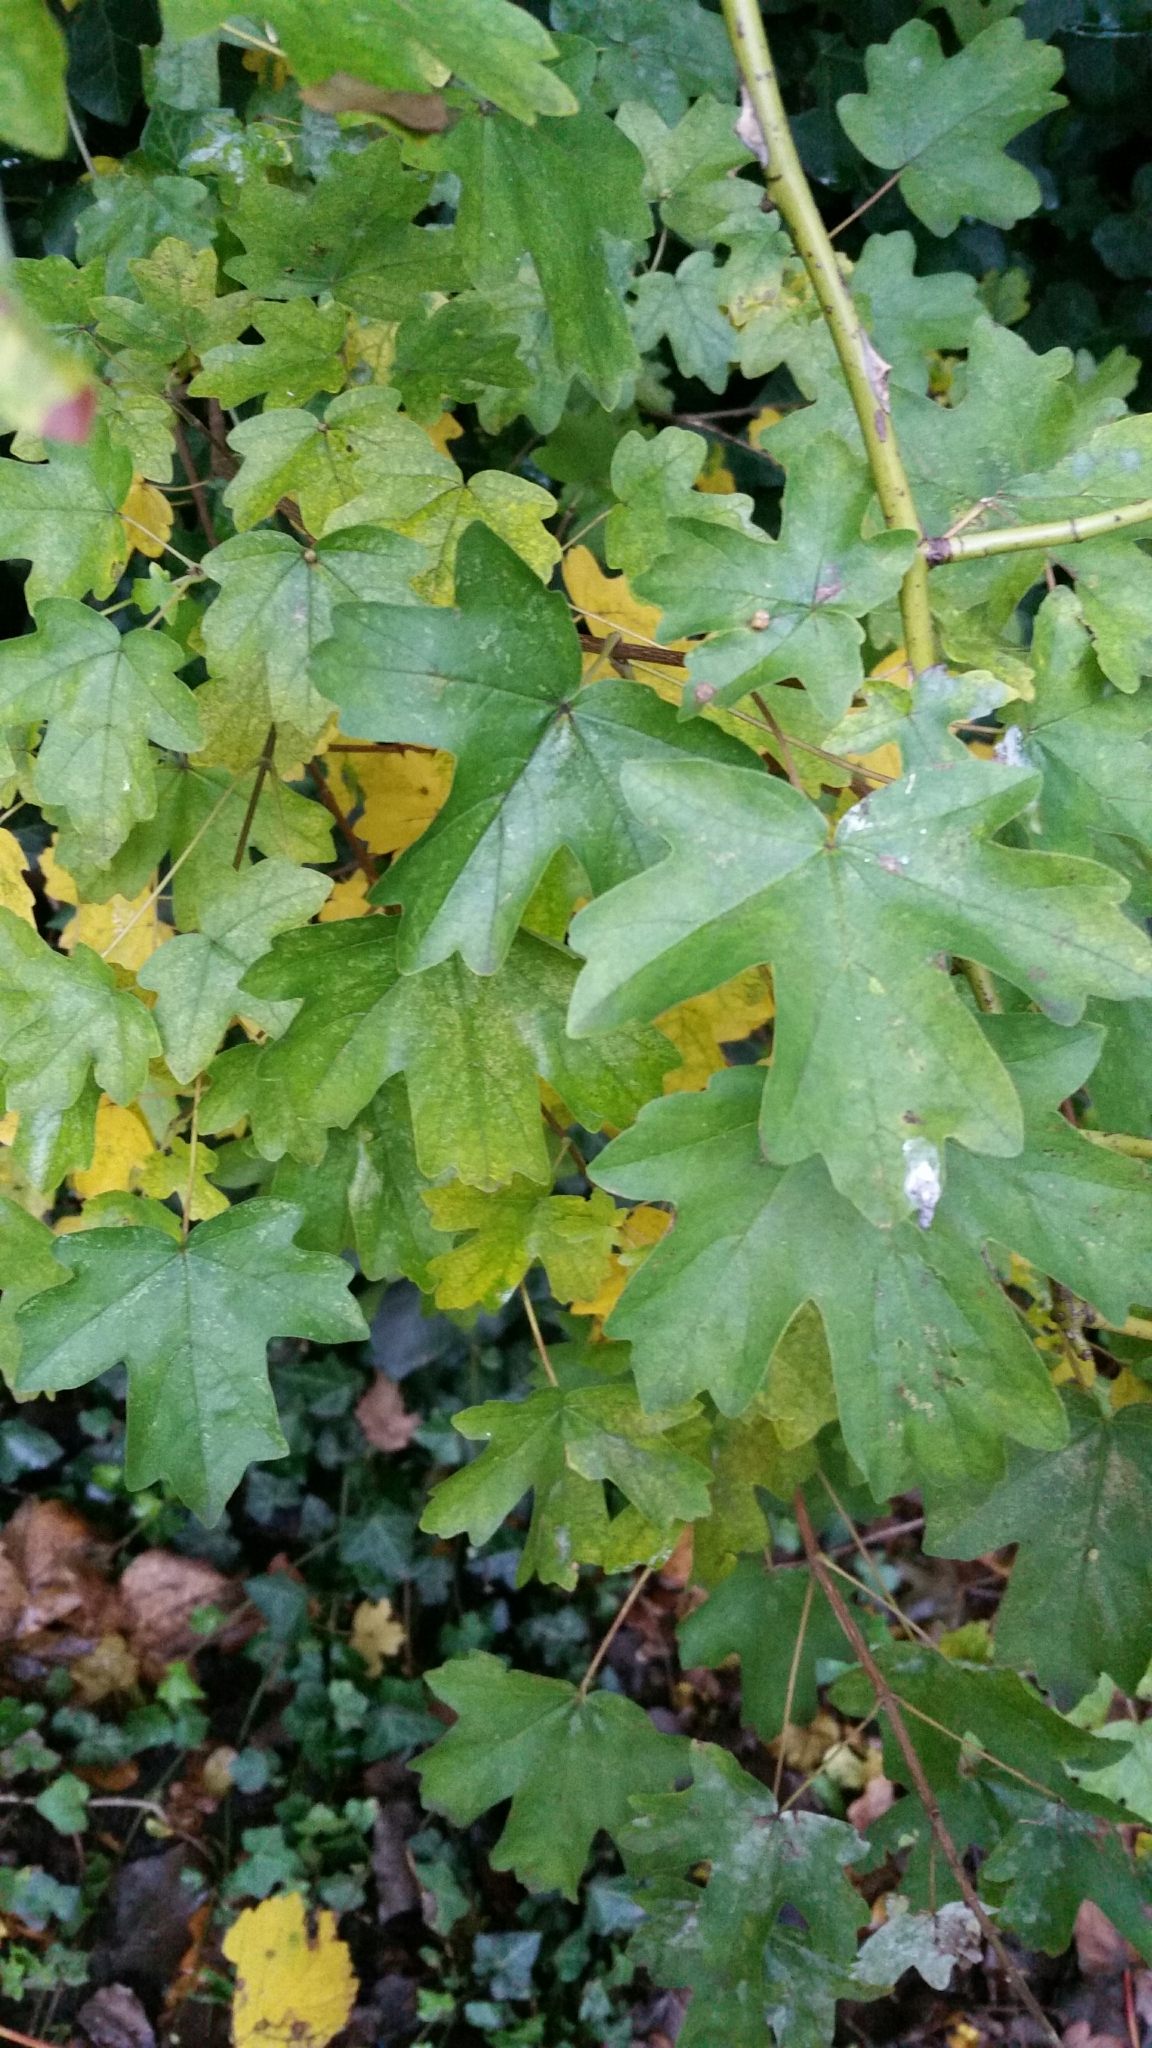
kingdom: Plantae
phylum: Tracheophyta
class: Magnoliopsida
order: Sapindales
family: Sapindaceae
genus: Acer
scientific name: Acer campestre
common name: Field maple
